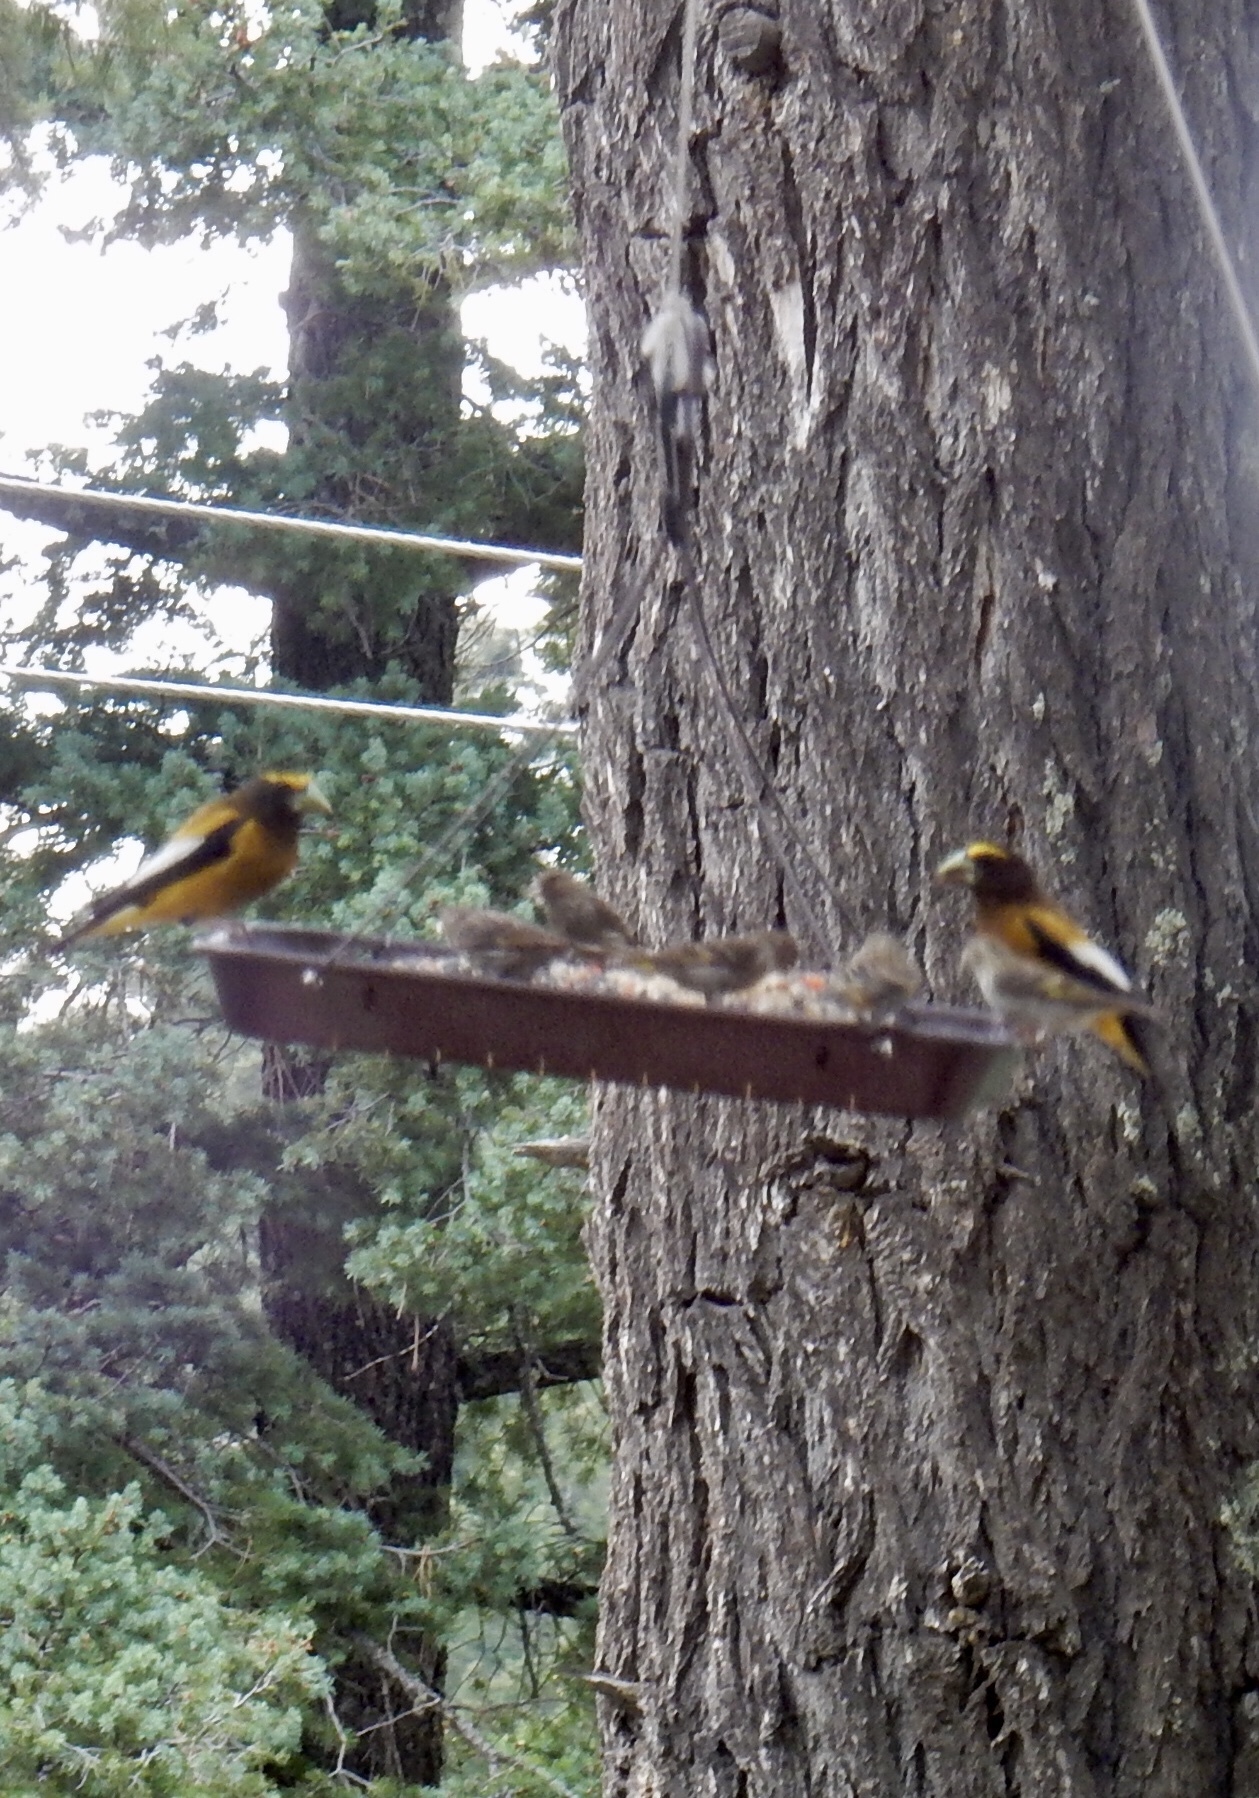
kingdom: Animalia
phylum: Chordata
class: Aves
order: Passeriformes
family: Fringillidae
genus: Hesperiphona
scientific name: Hesperiphona vespertina
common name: Evening grosbeak
